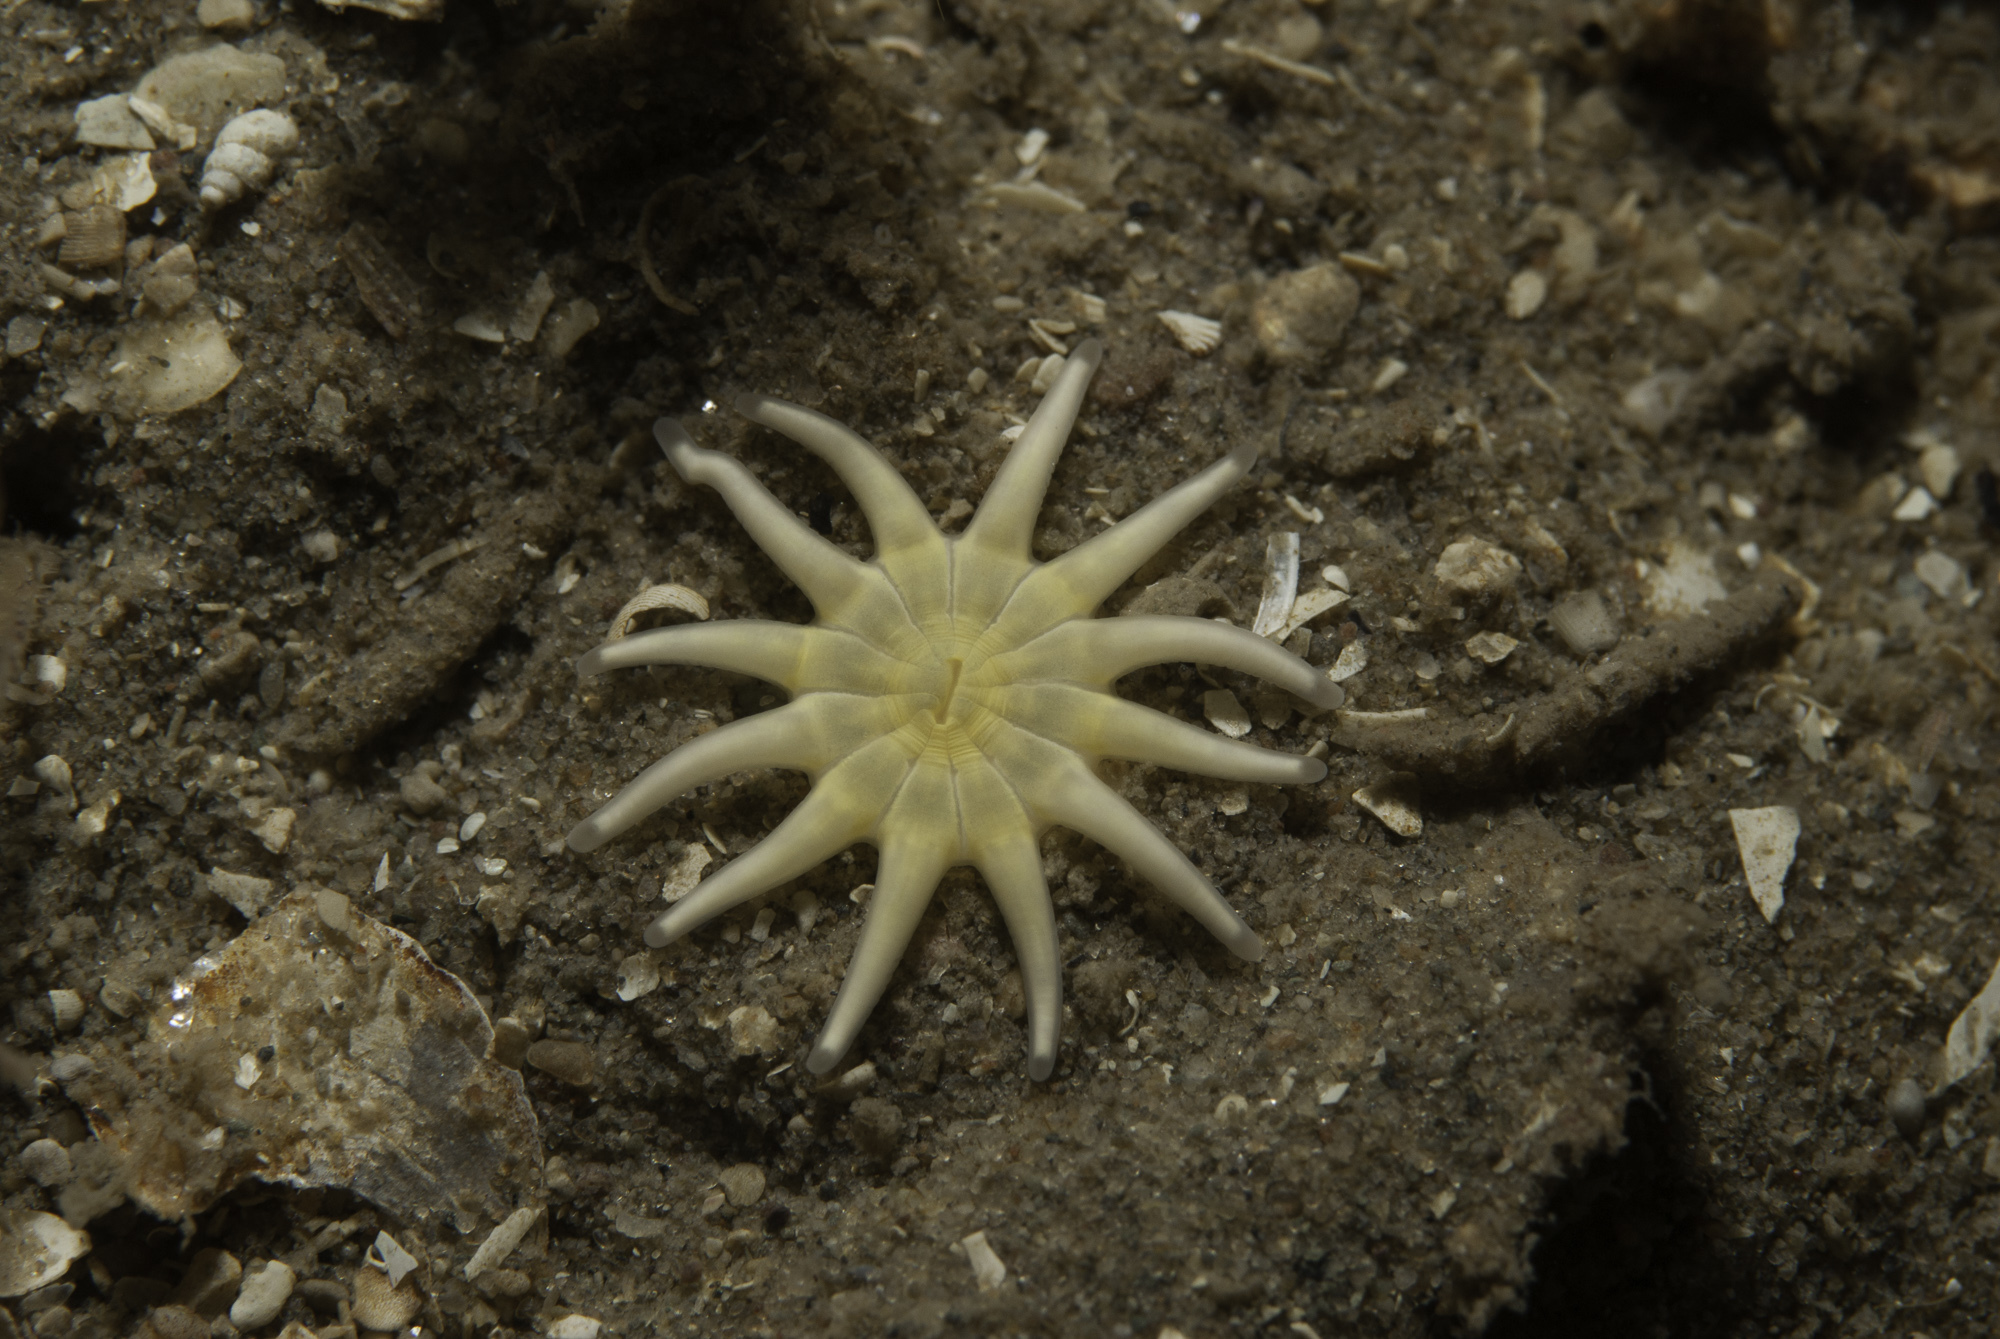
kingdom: Animalia
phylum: Cnidaria
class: Anthozoa
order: Actiniaria
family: Halcampidae
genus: Halcampa
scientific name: Halcampa chrysanthellum
